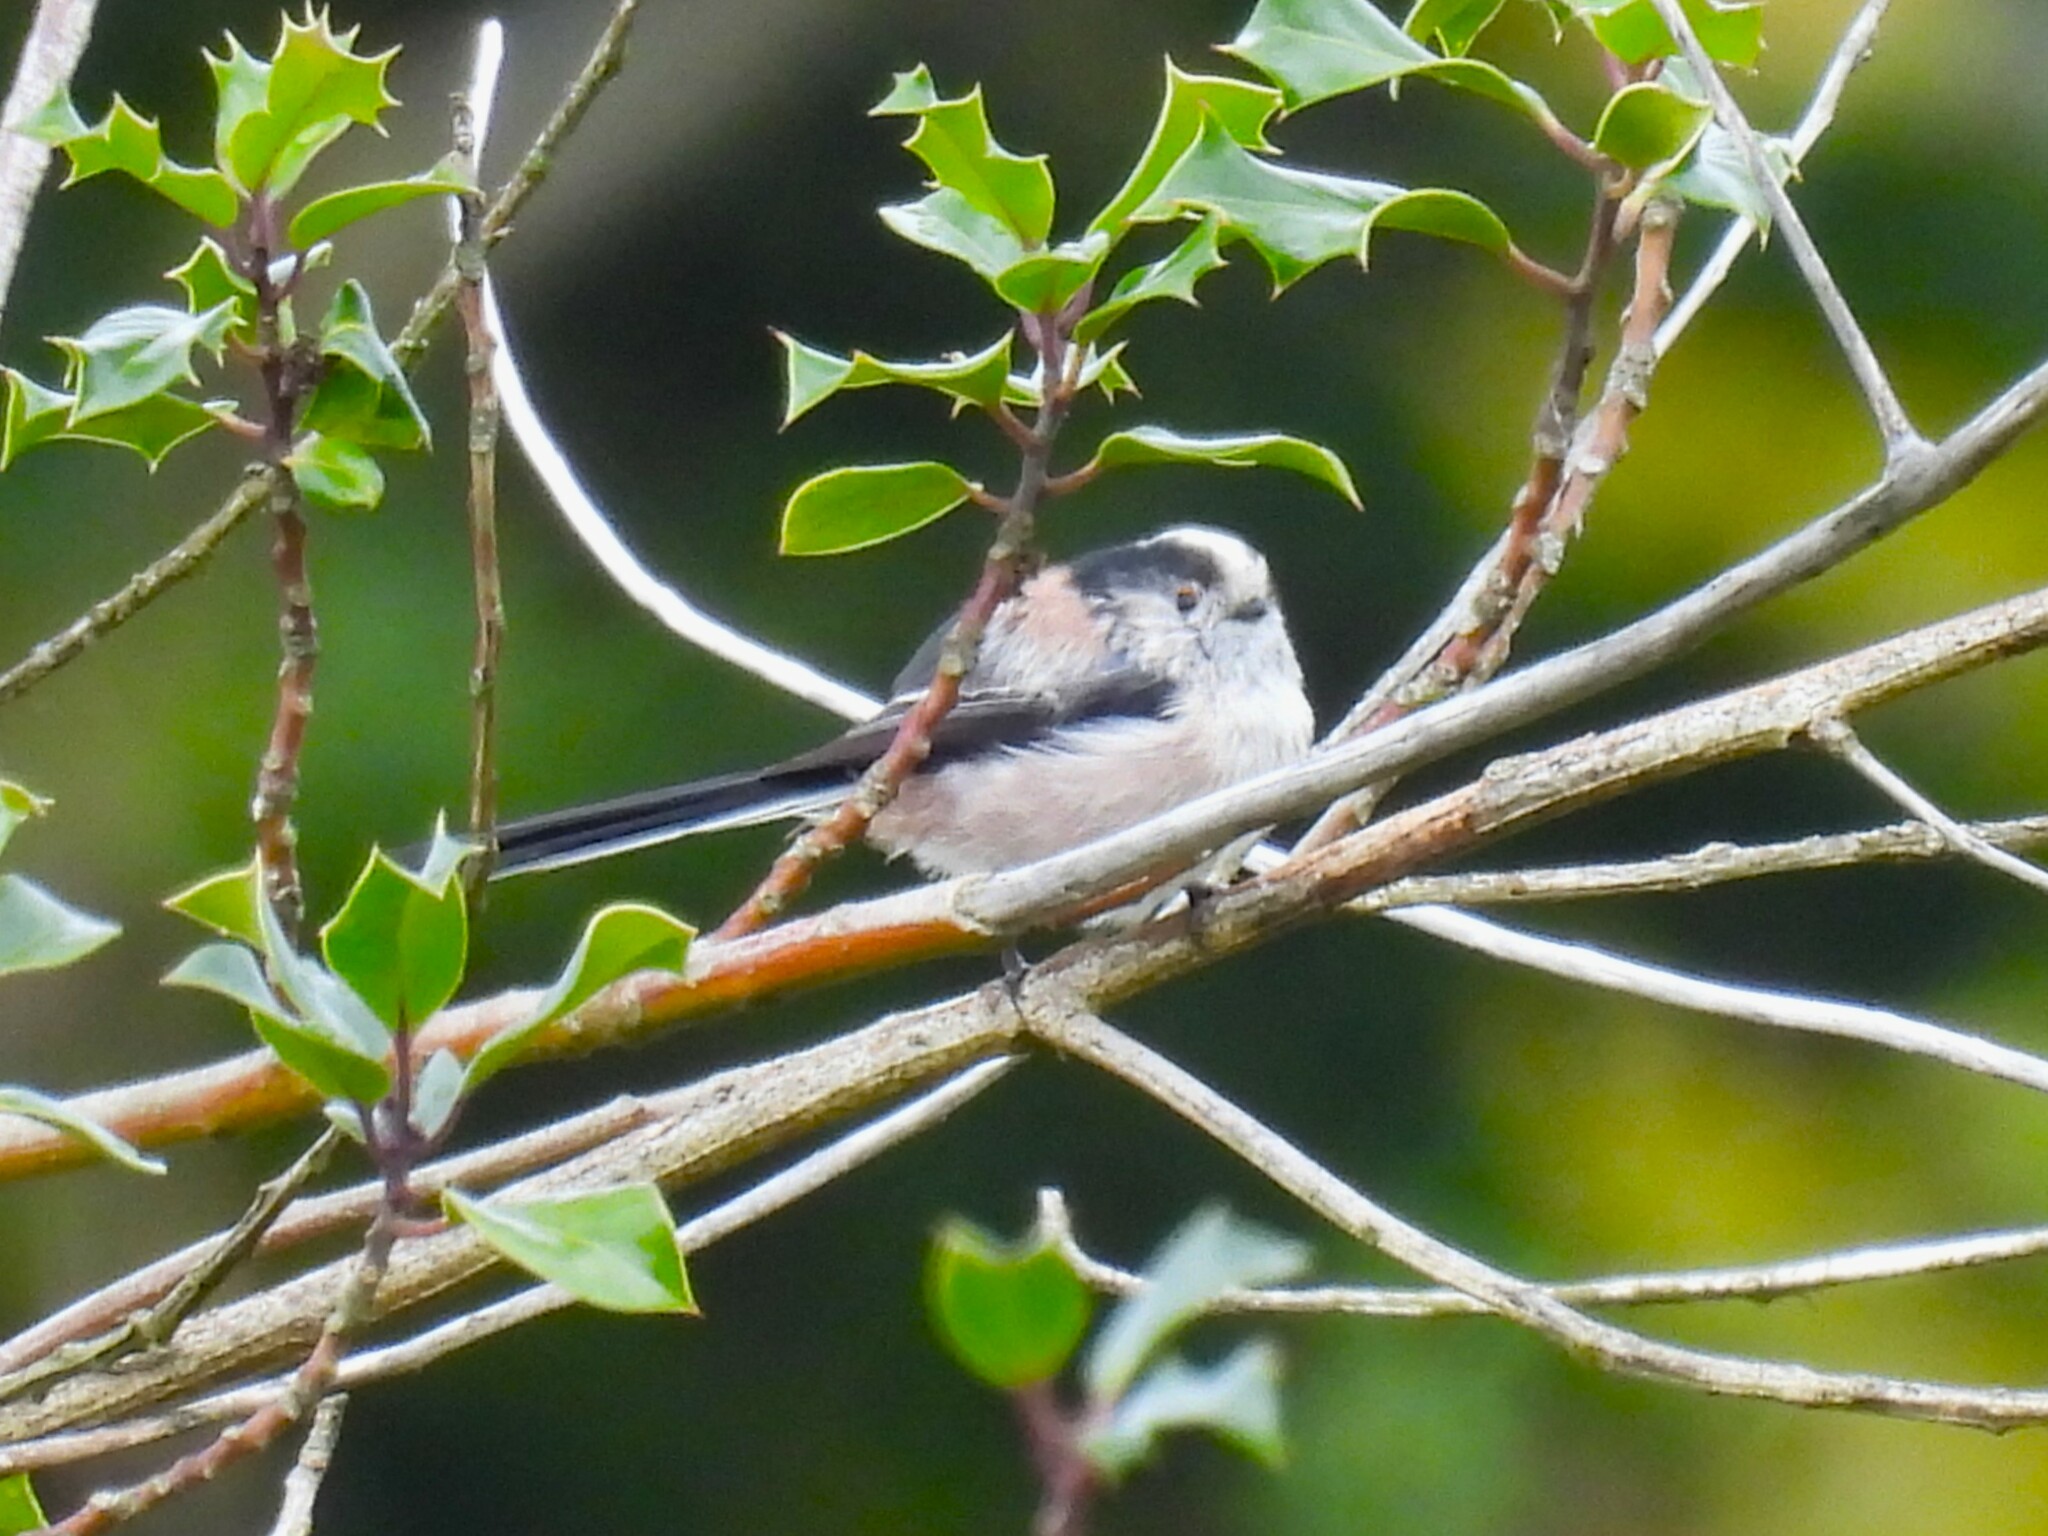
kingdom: Animalia
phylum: Chordata
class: Aves
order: Passeriformes
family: Aegithalidae
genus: Aegithalos
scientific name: Aegithalos caudatus
